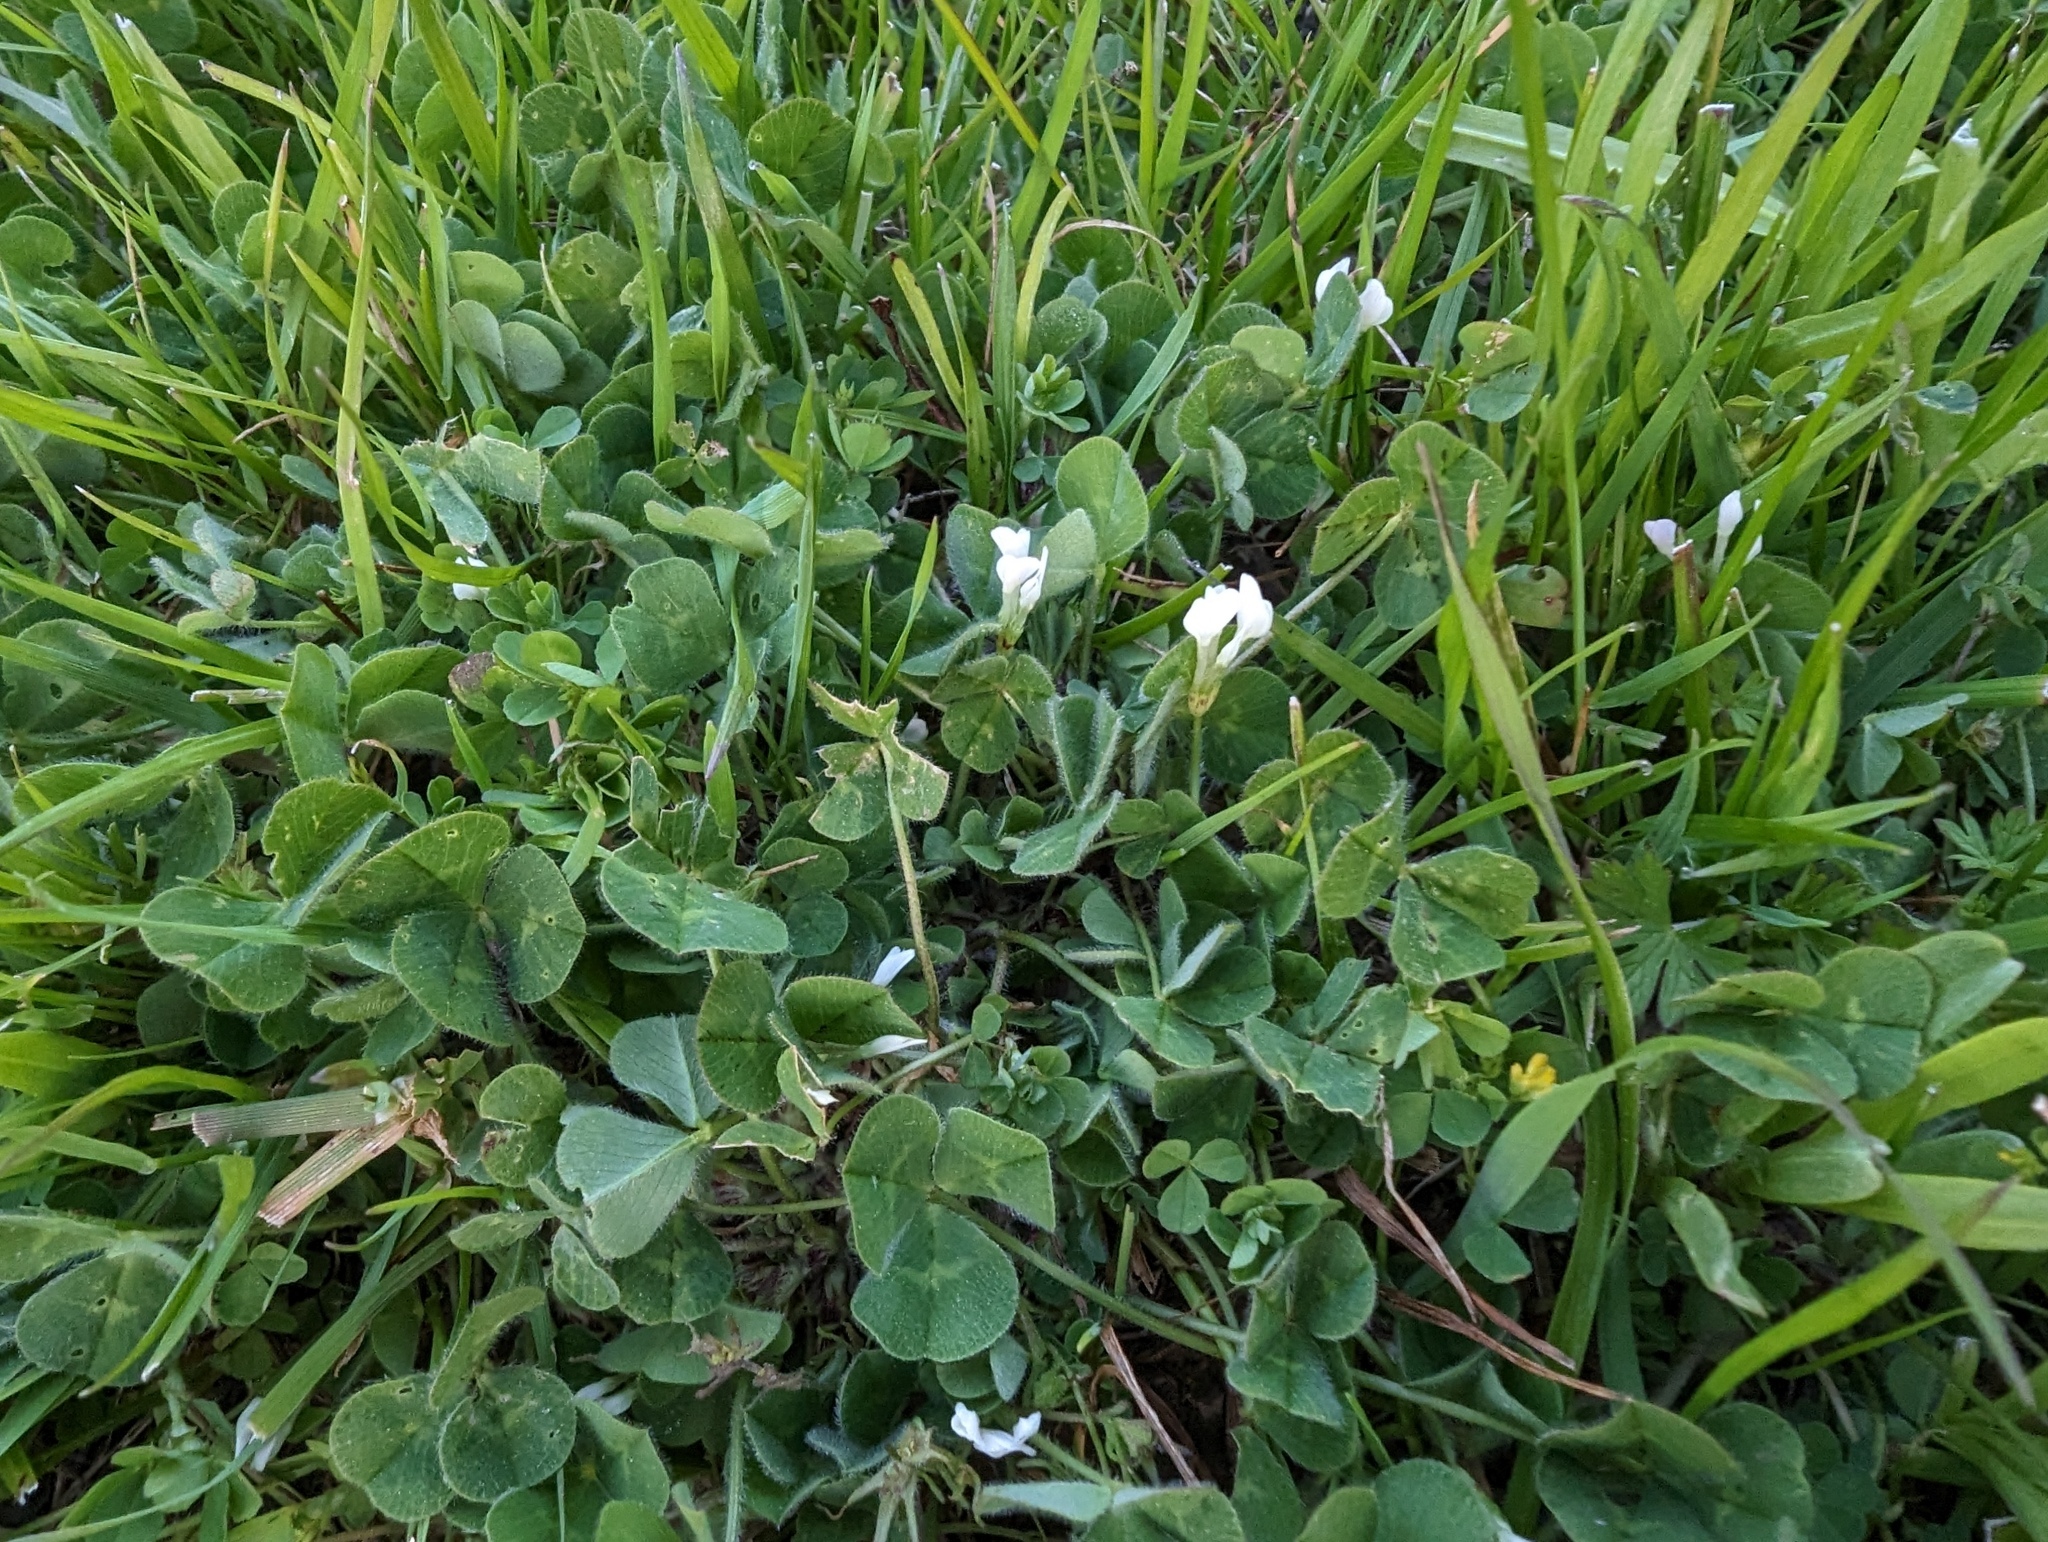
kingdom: Plantae
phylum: Tracheophyta
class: Magnoliopsida
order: Fabales
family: Fabaceae
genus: Trifolium
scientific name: Trifolium subterraneum
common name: Subterranean clover
